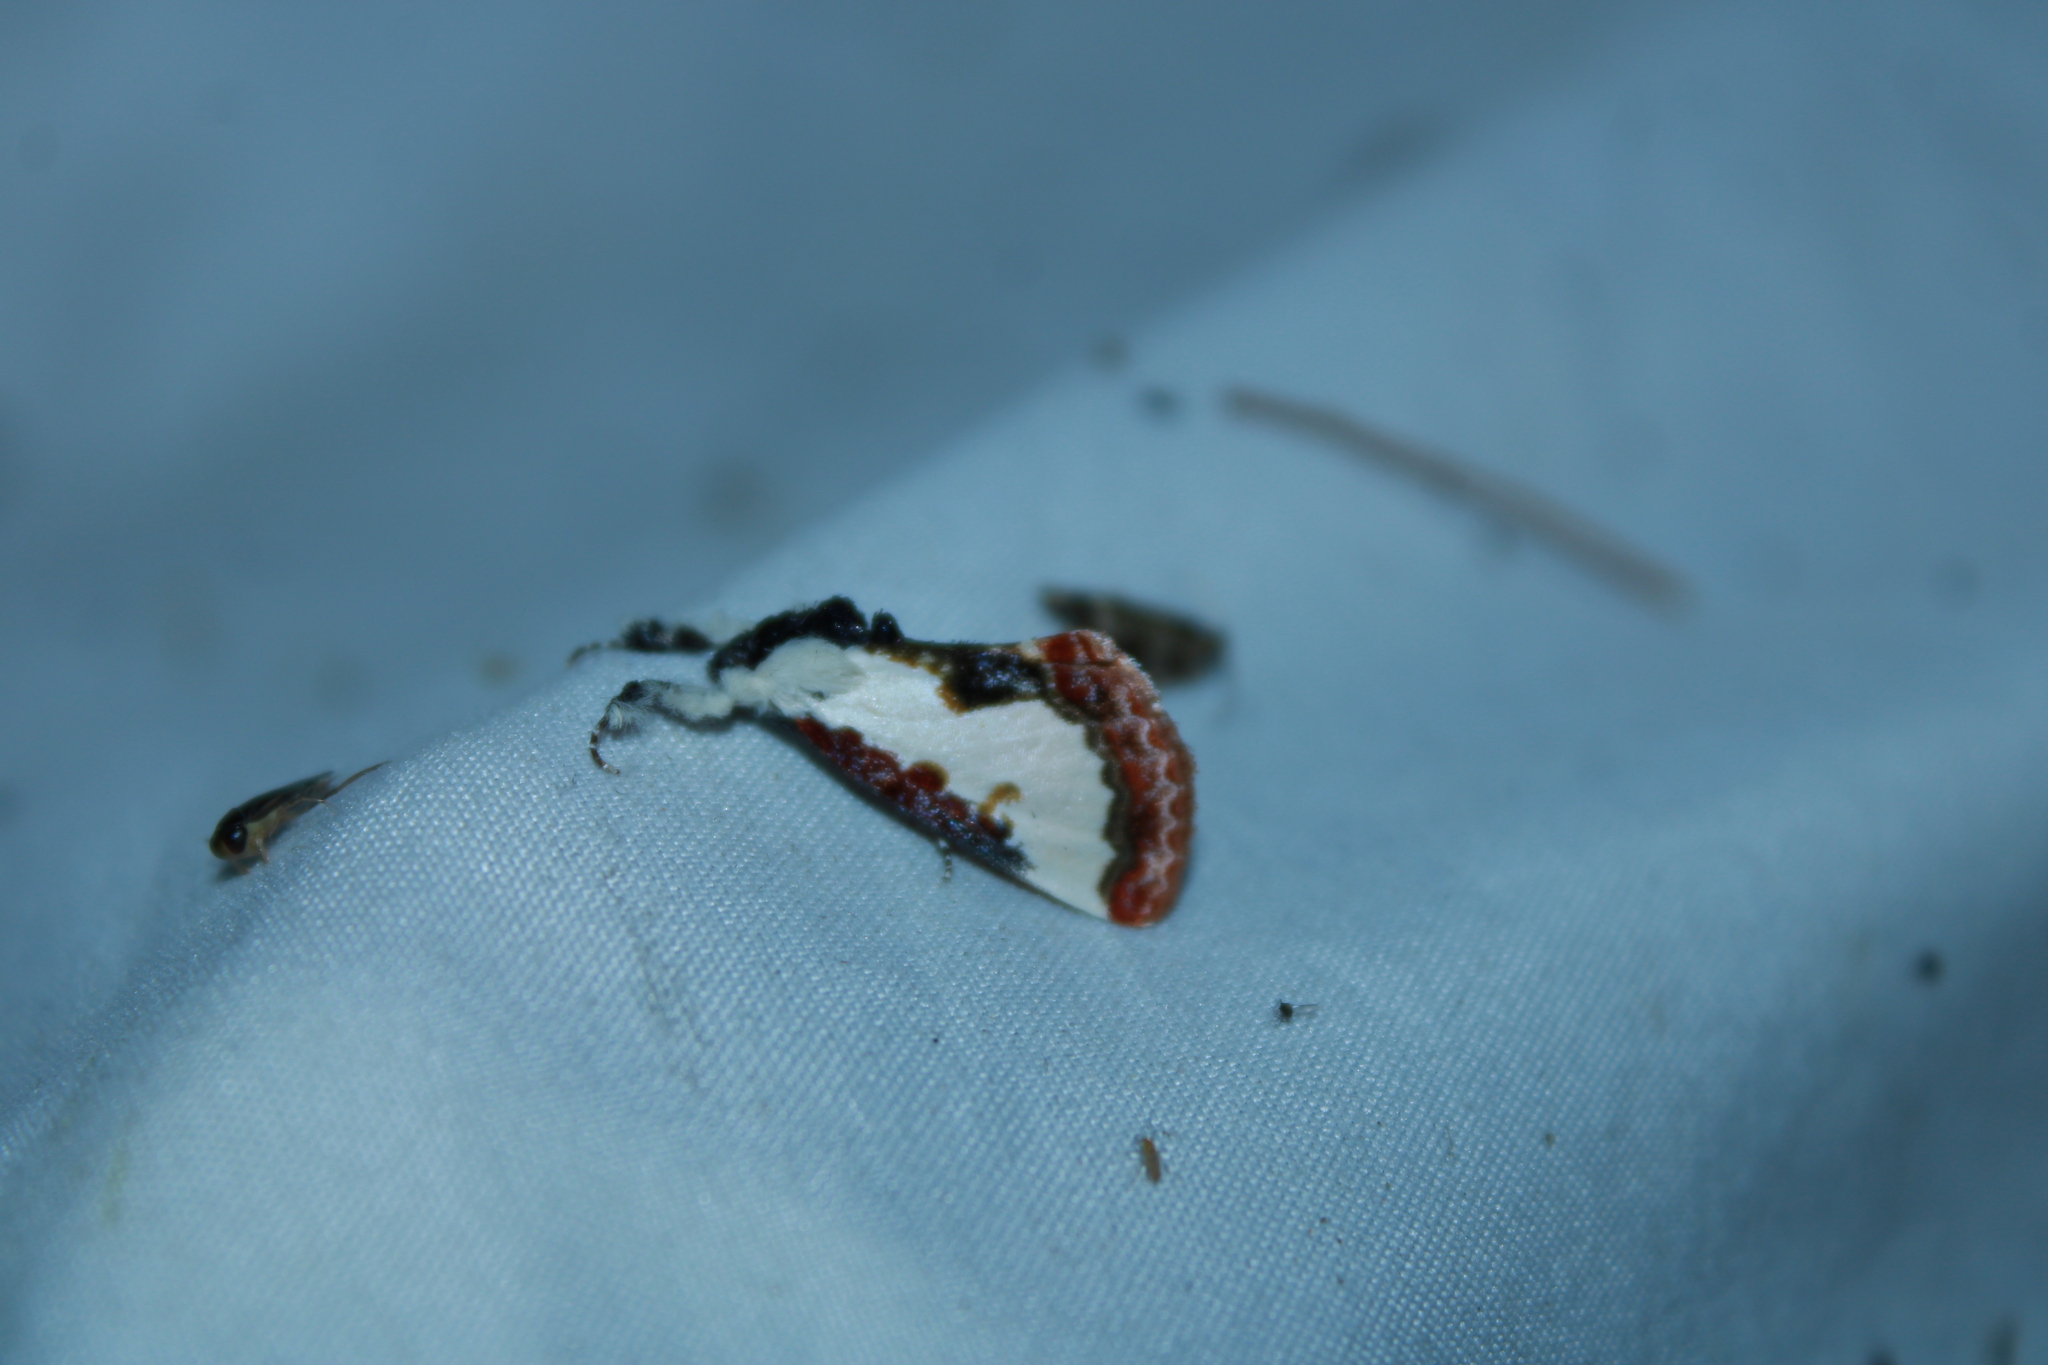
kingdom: Animalia
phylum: Arthropoda
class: Insecta
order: Lepidoptera
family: Noctuidae
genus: Eudryas
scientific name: Eudryas unio
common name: Pearly wood-nymph
